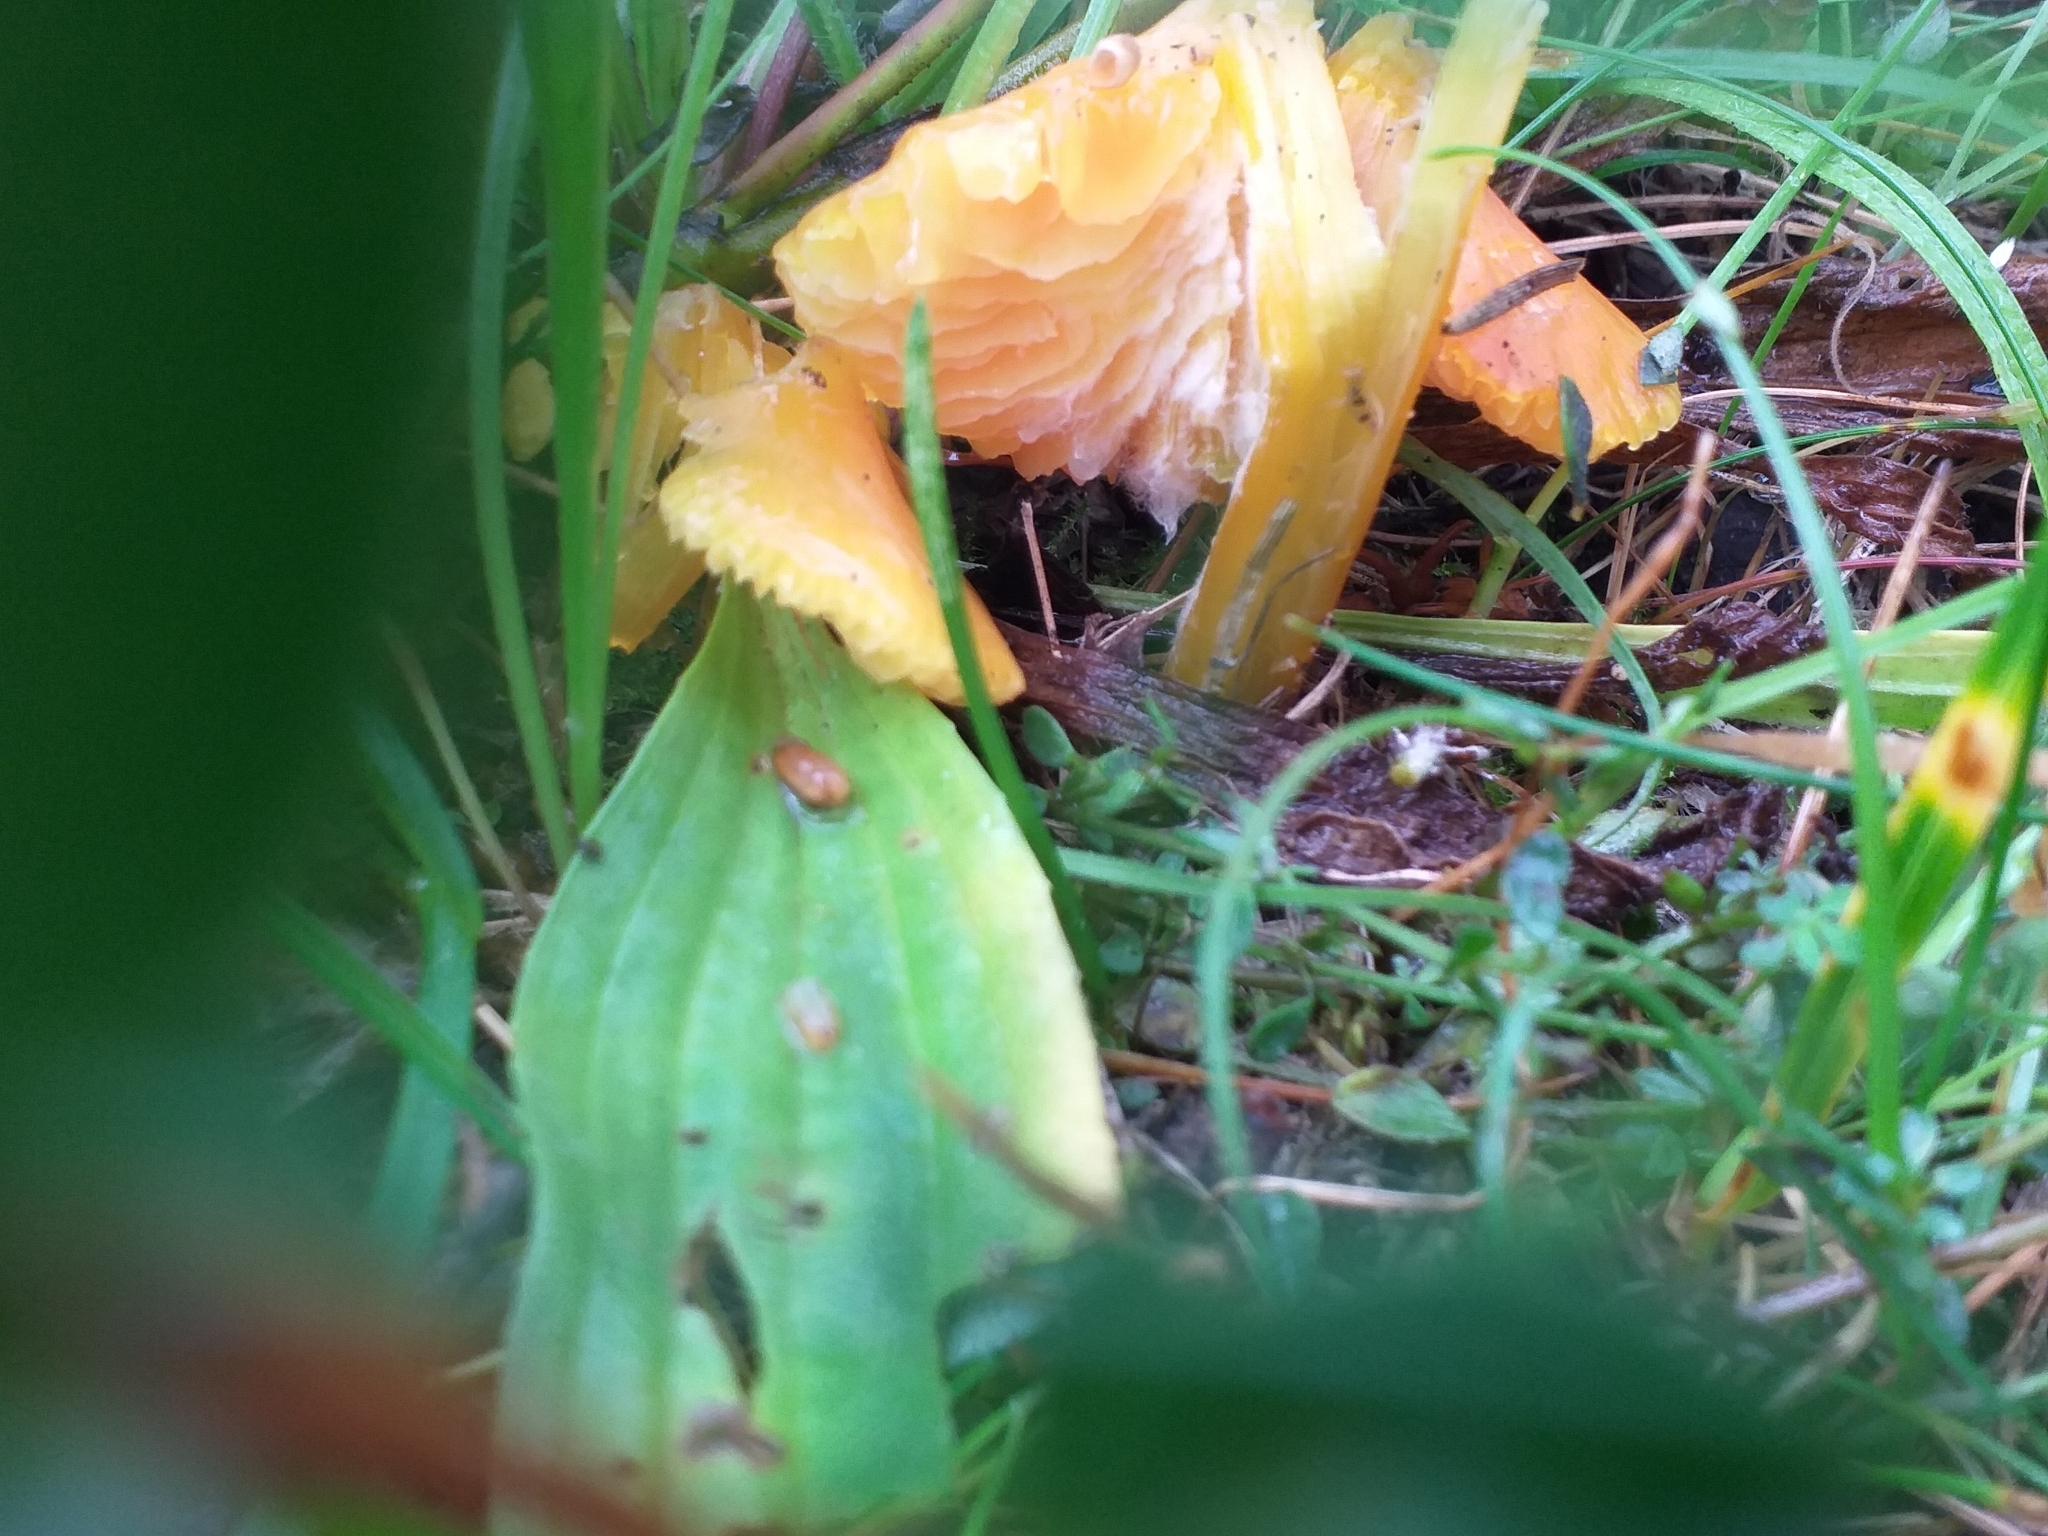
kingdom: Fungi
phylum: Basidiomycota
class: Agaricomycetes
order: Agaricales
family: Hygrophoraceae
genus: Hygrocybe
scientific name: Hygrocybe acutoconica
